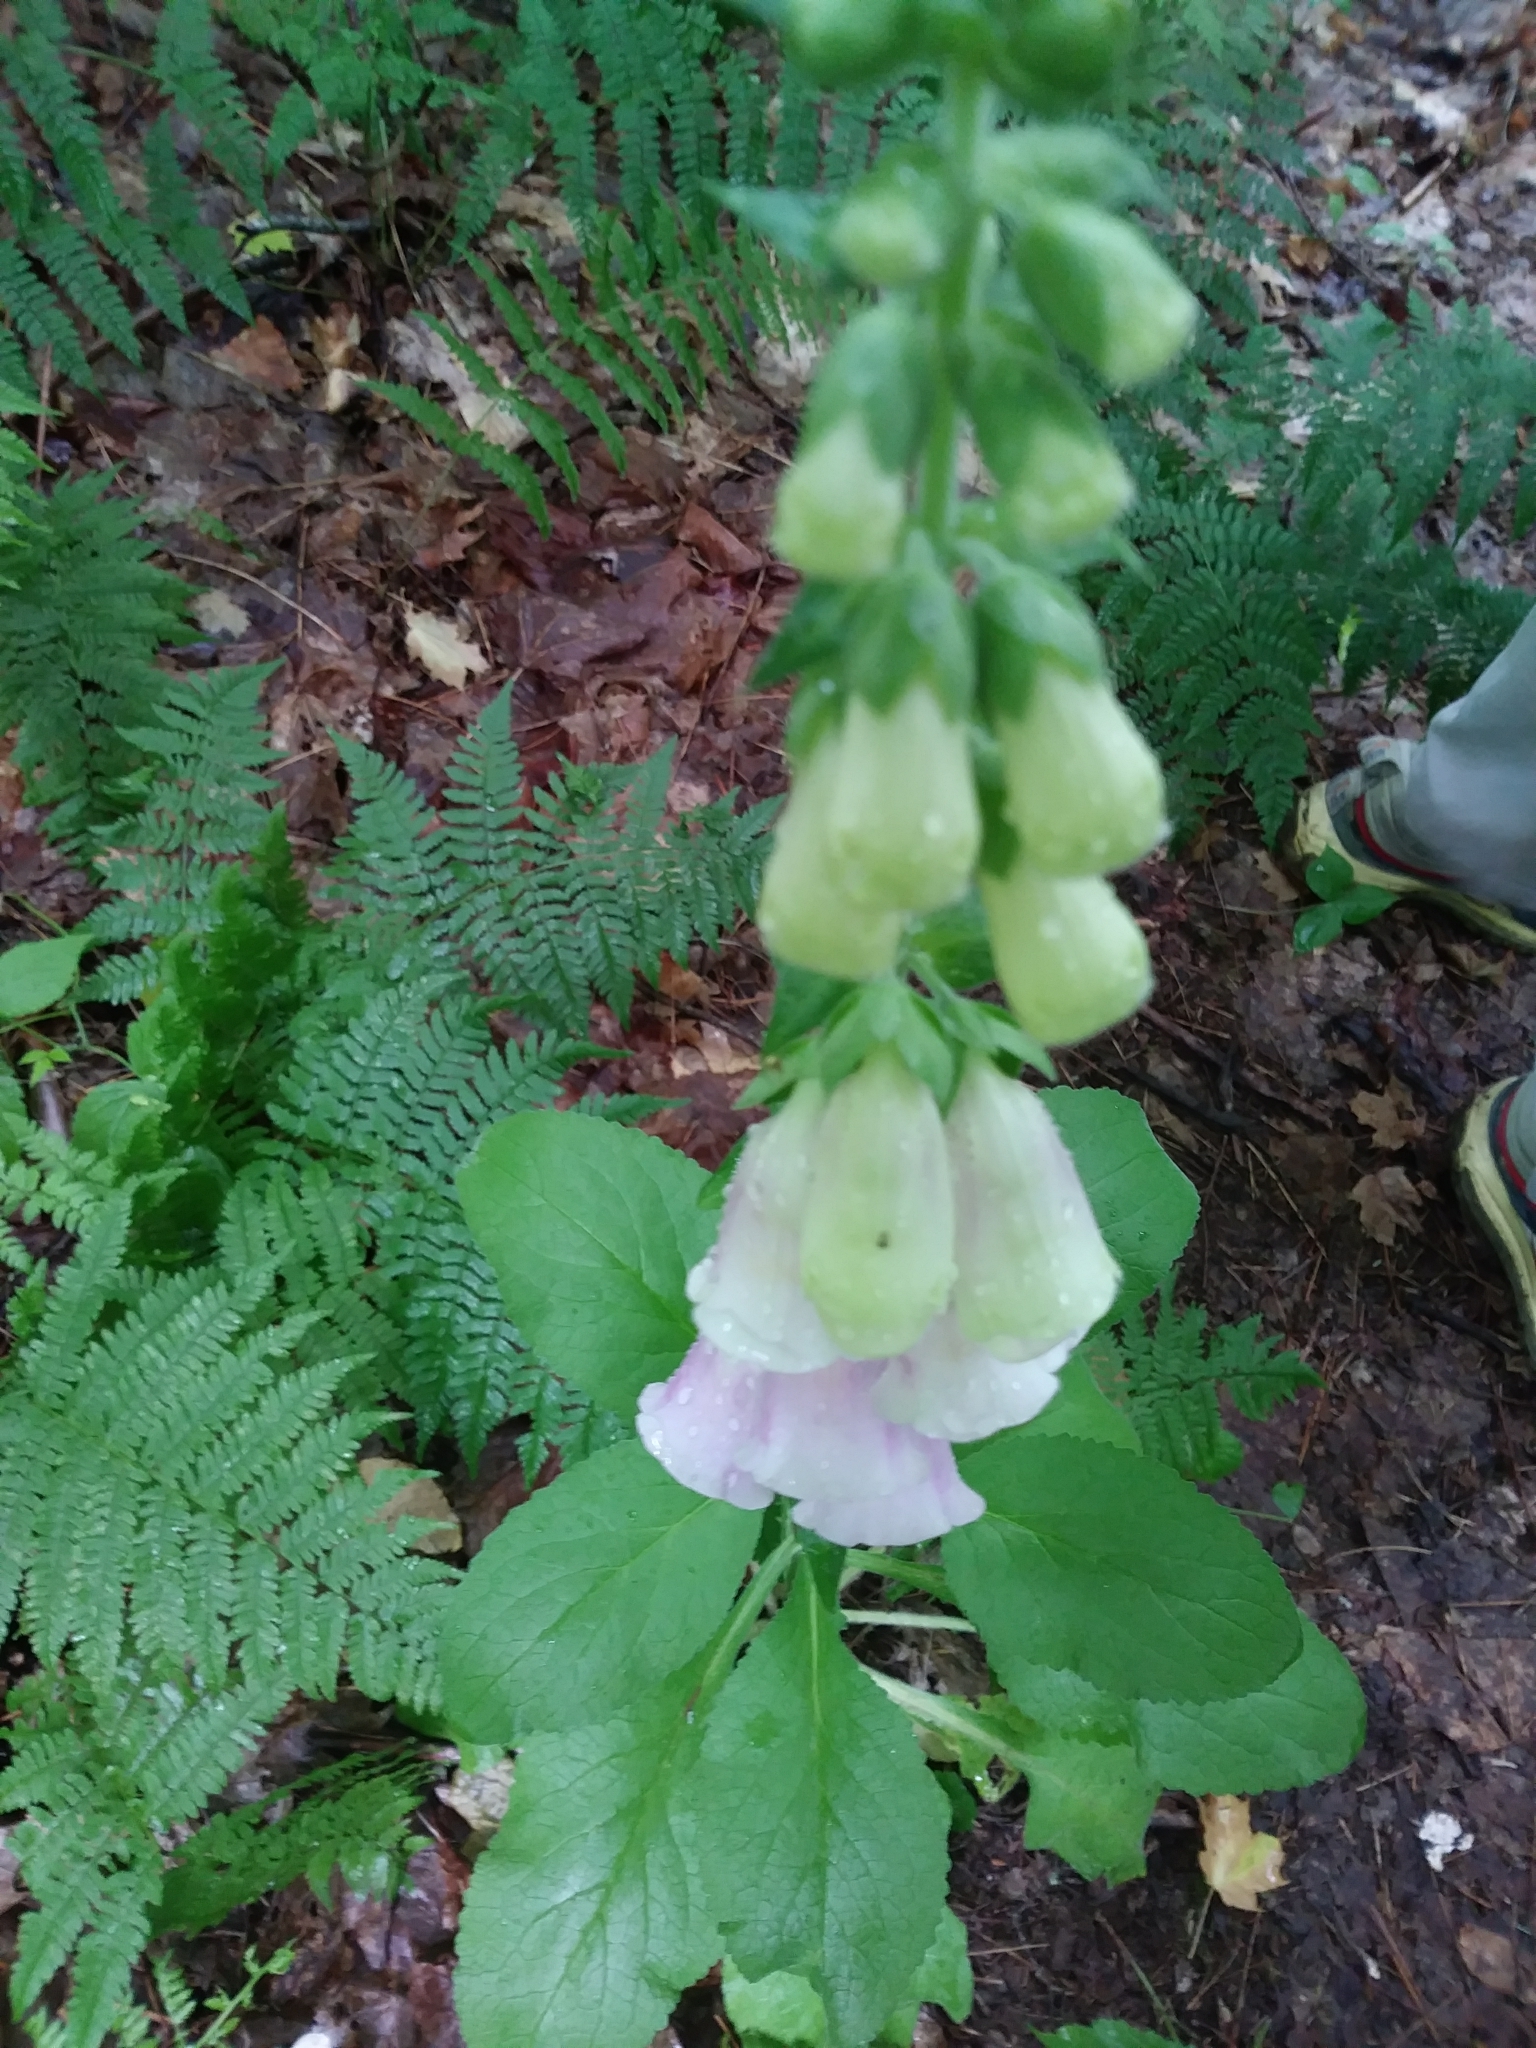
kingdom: Plantae
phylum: Tracheophyta
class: Magnoliopsida
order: Lamiales
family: Plantaginaceae
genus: Digitalis
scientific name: Digitalis purpurea
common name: Foxglove
